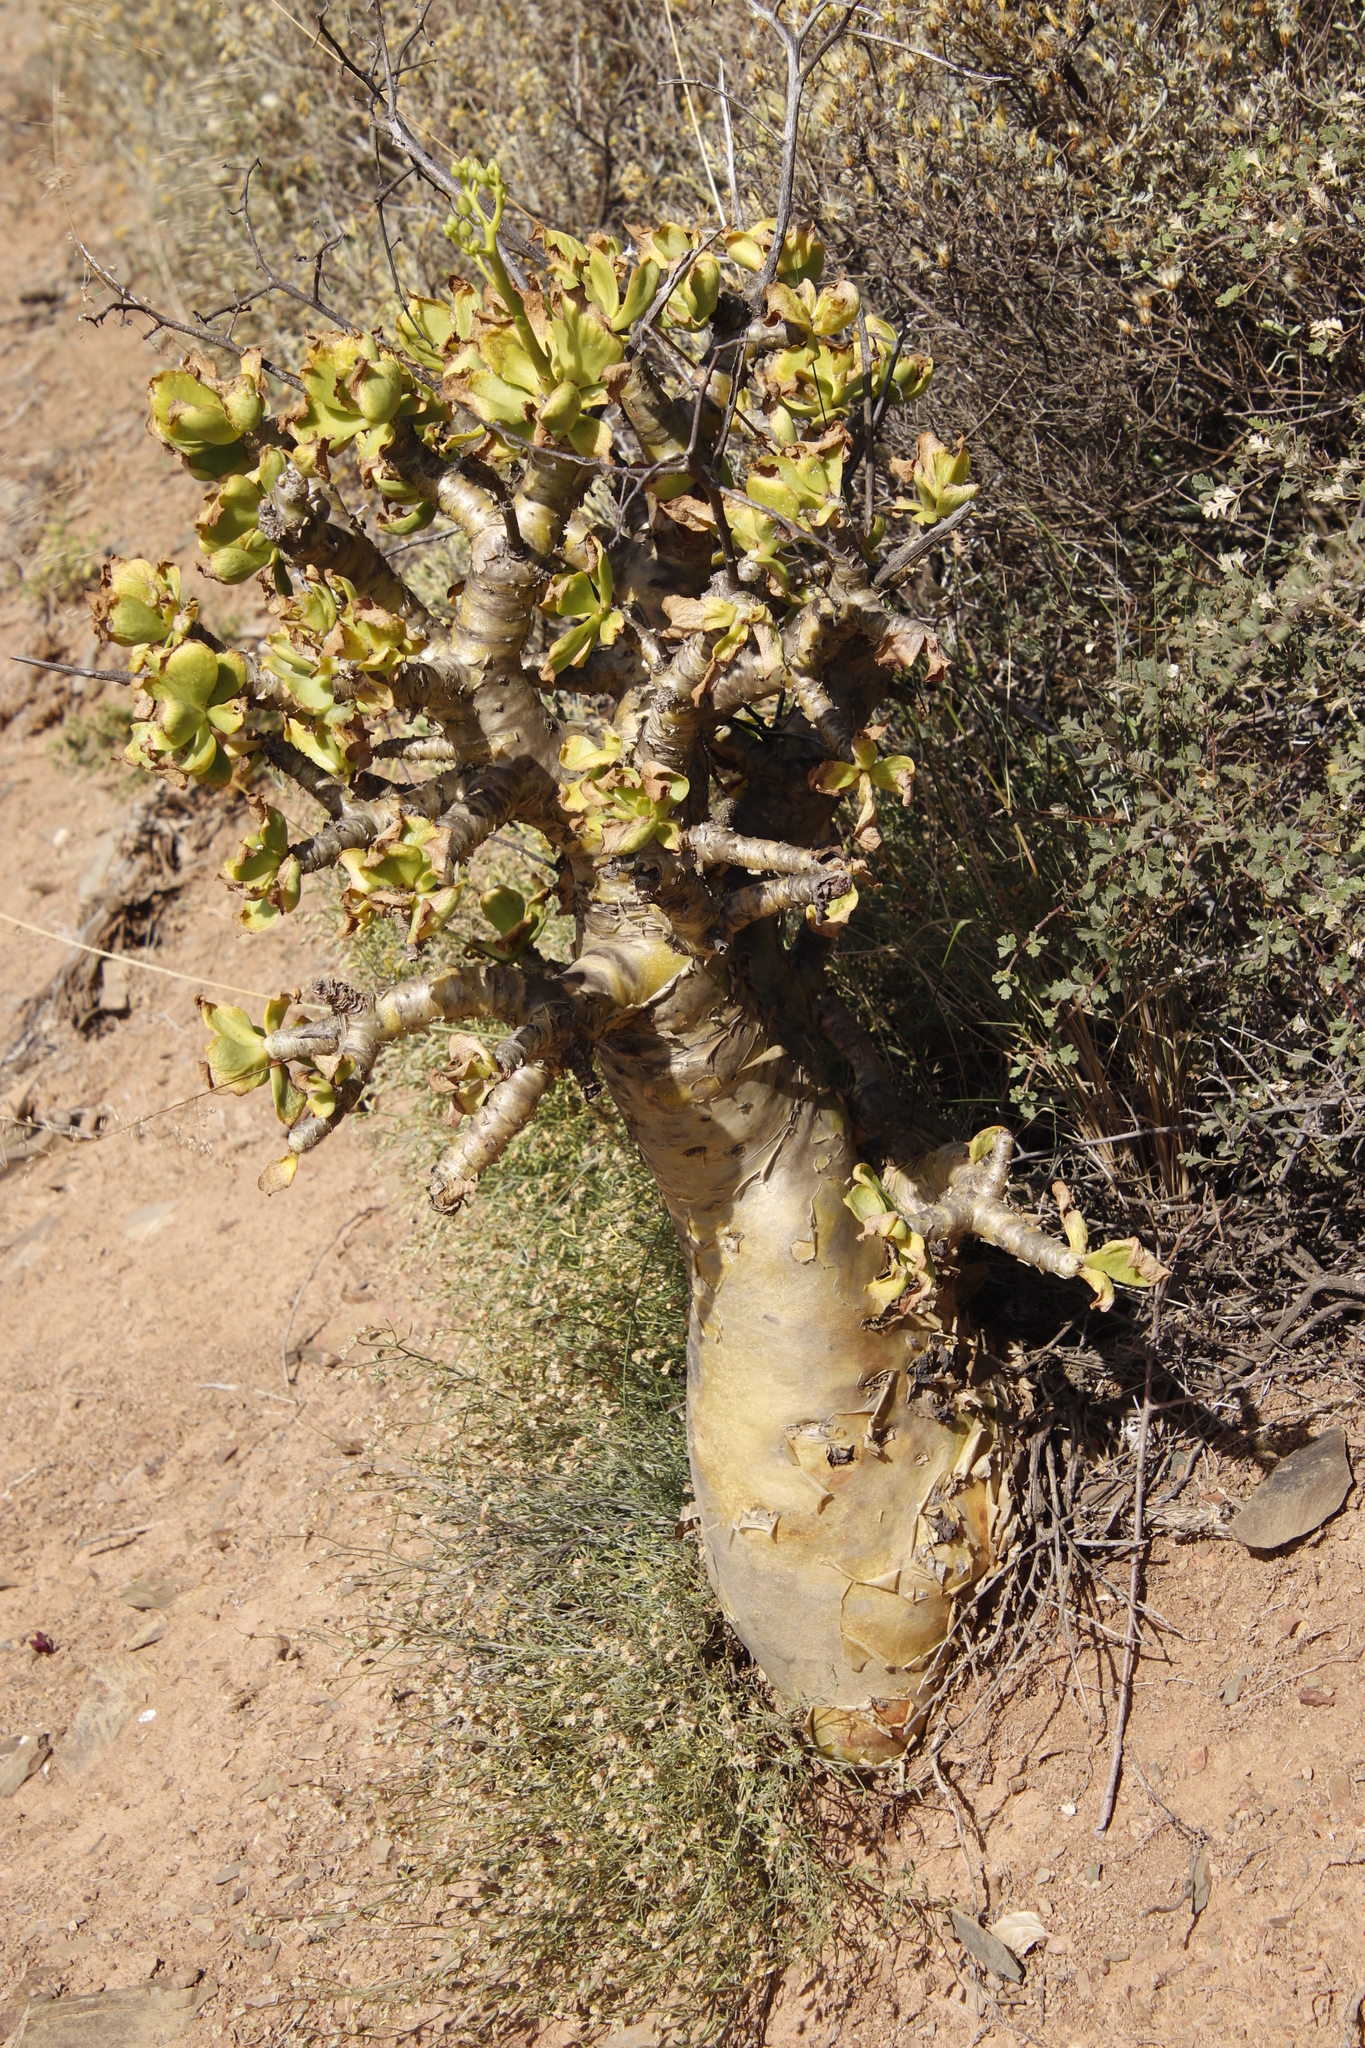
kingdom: Plantae
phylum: Tracheophyta
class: Magnoliopsida
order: Saxifragales
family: Crassulaceae
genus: Tylecodon
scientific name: Tylecodon paniculatus
